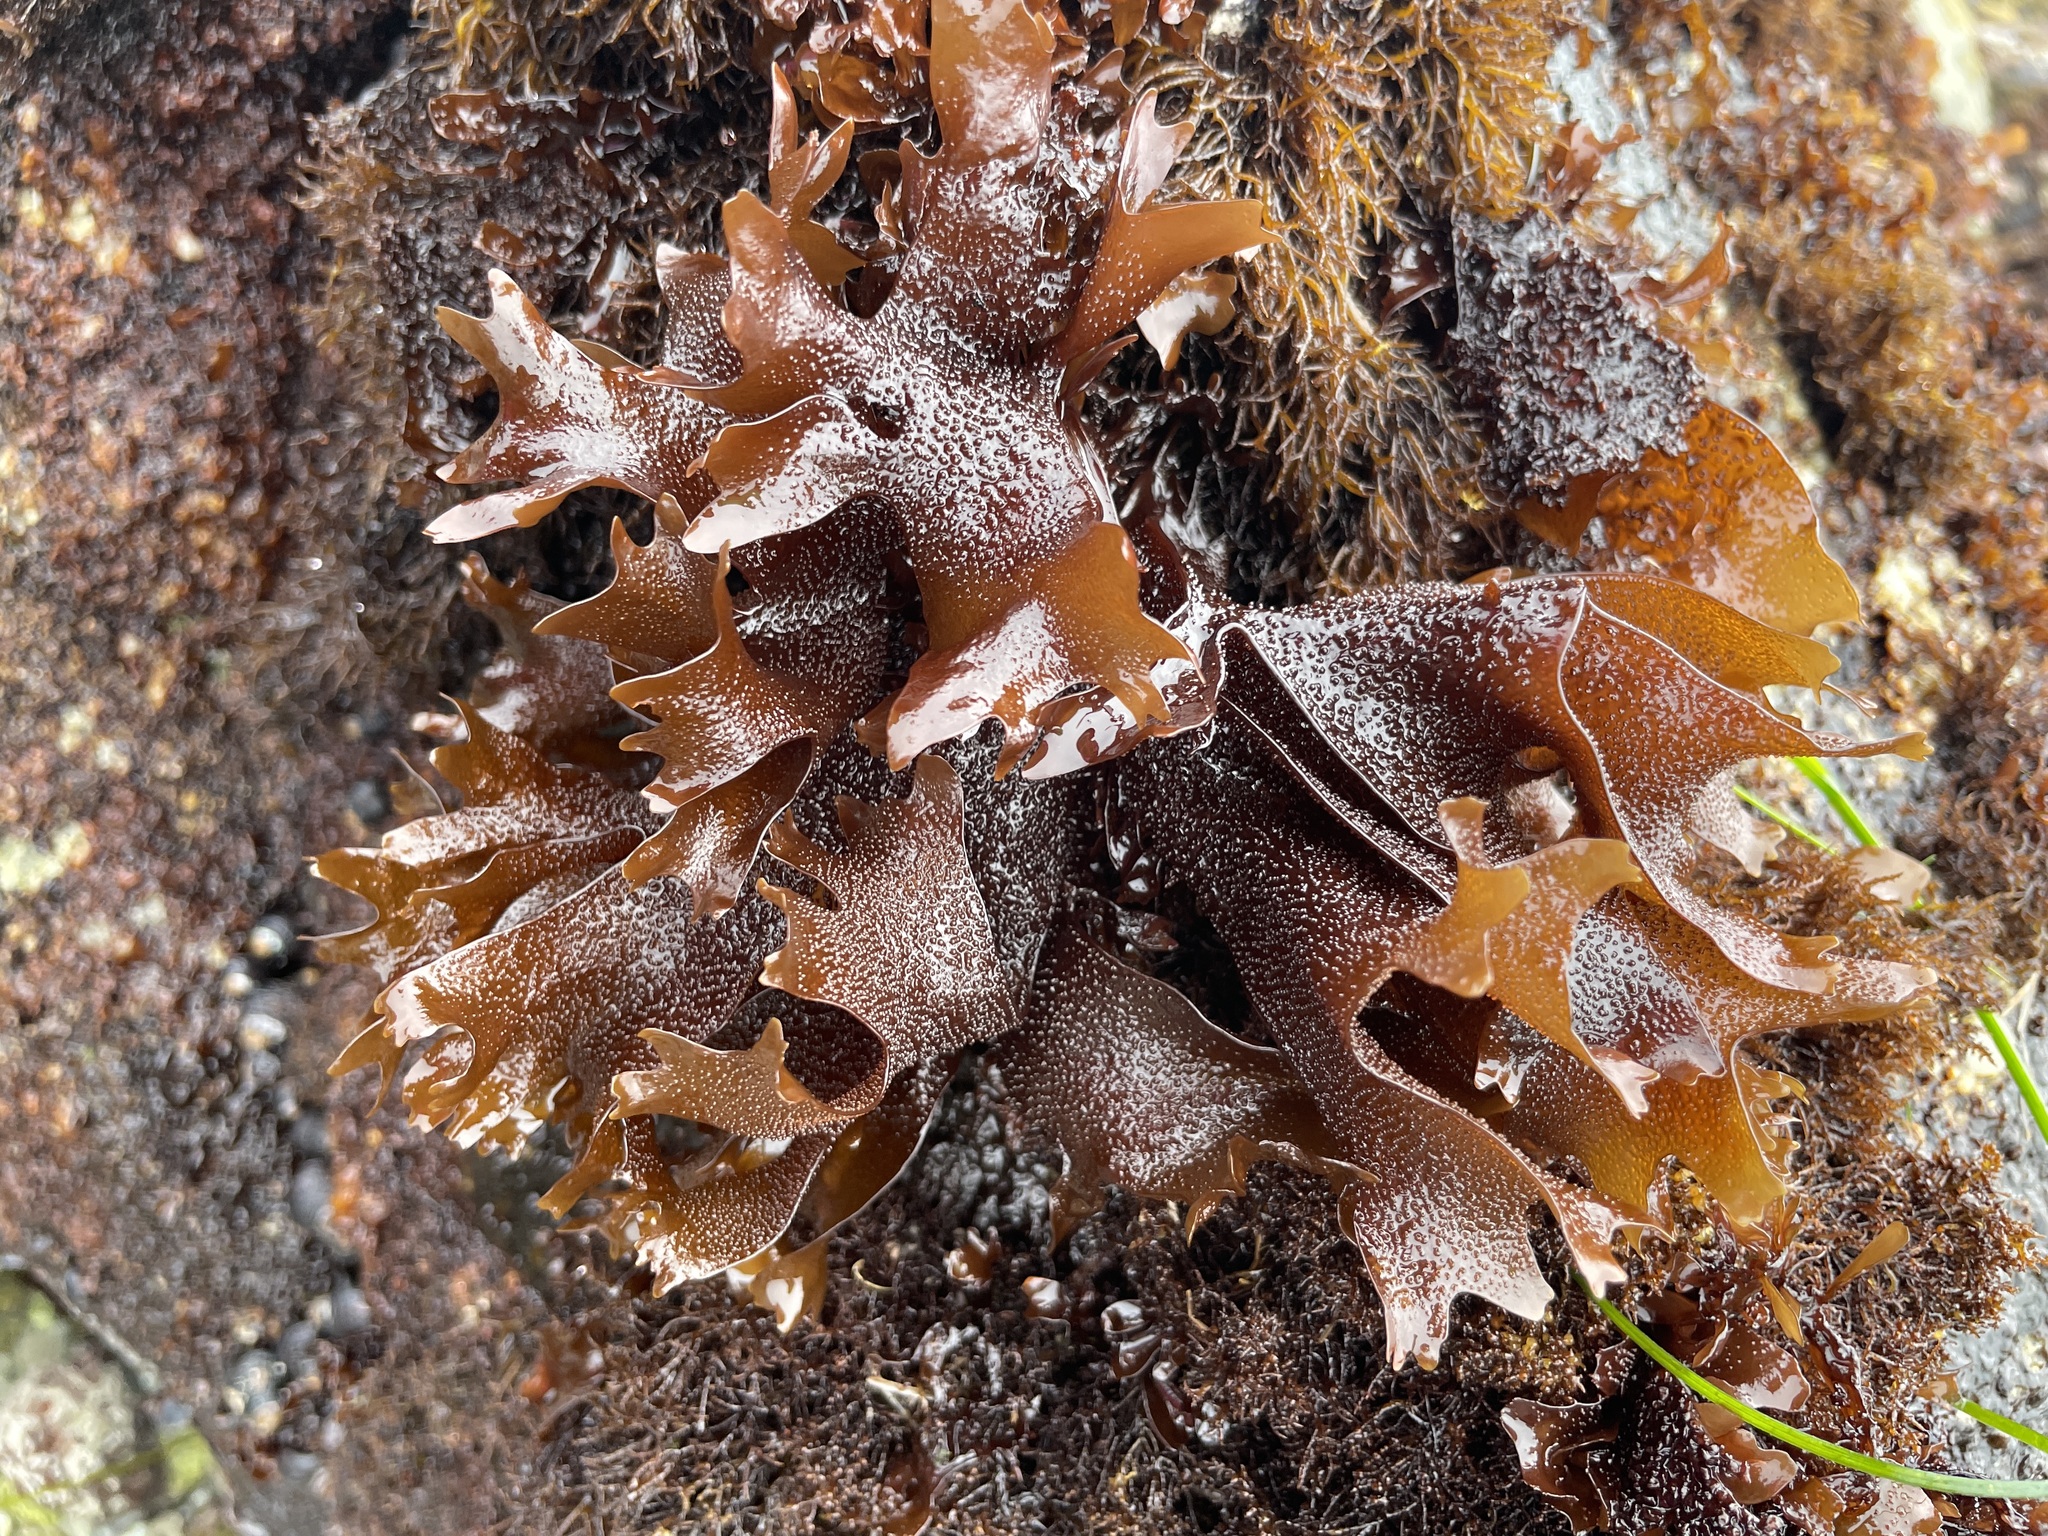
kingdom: Plantae
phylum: Rhodophyta
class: Florideophyceae
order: Gigartinales
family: Phyllophoraceae
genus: Mastocarpus
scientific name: Mastocarpus papillatus
